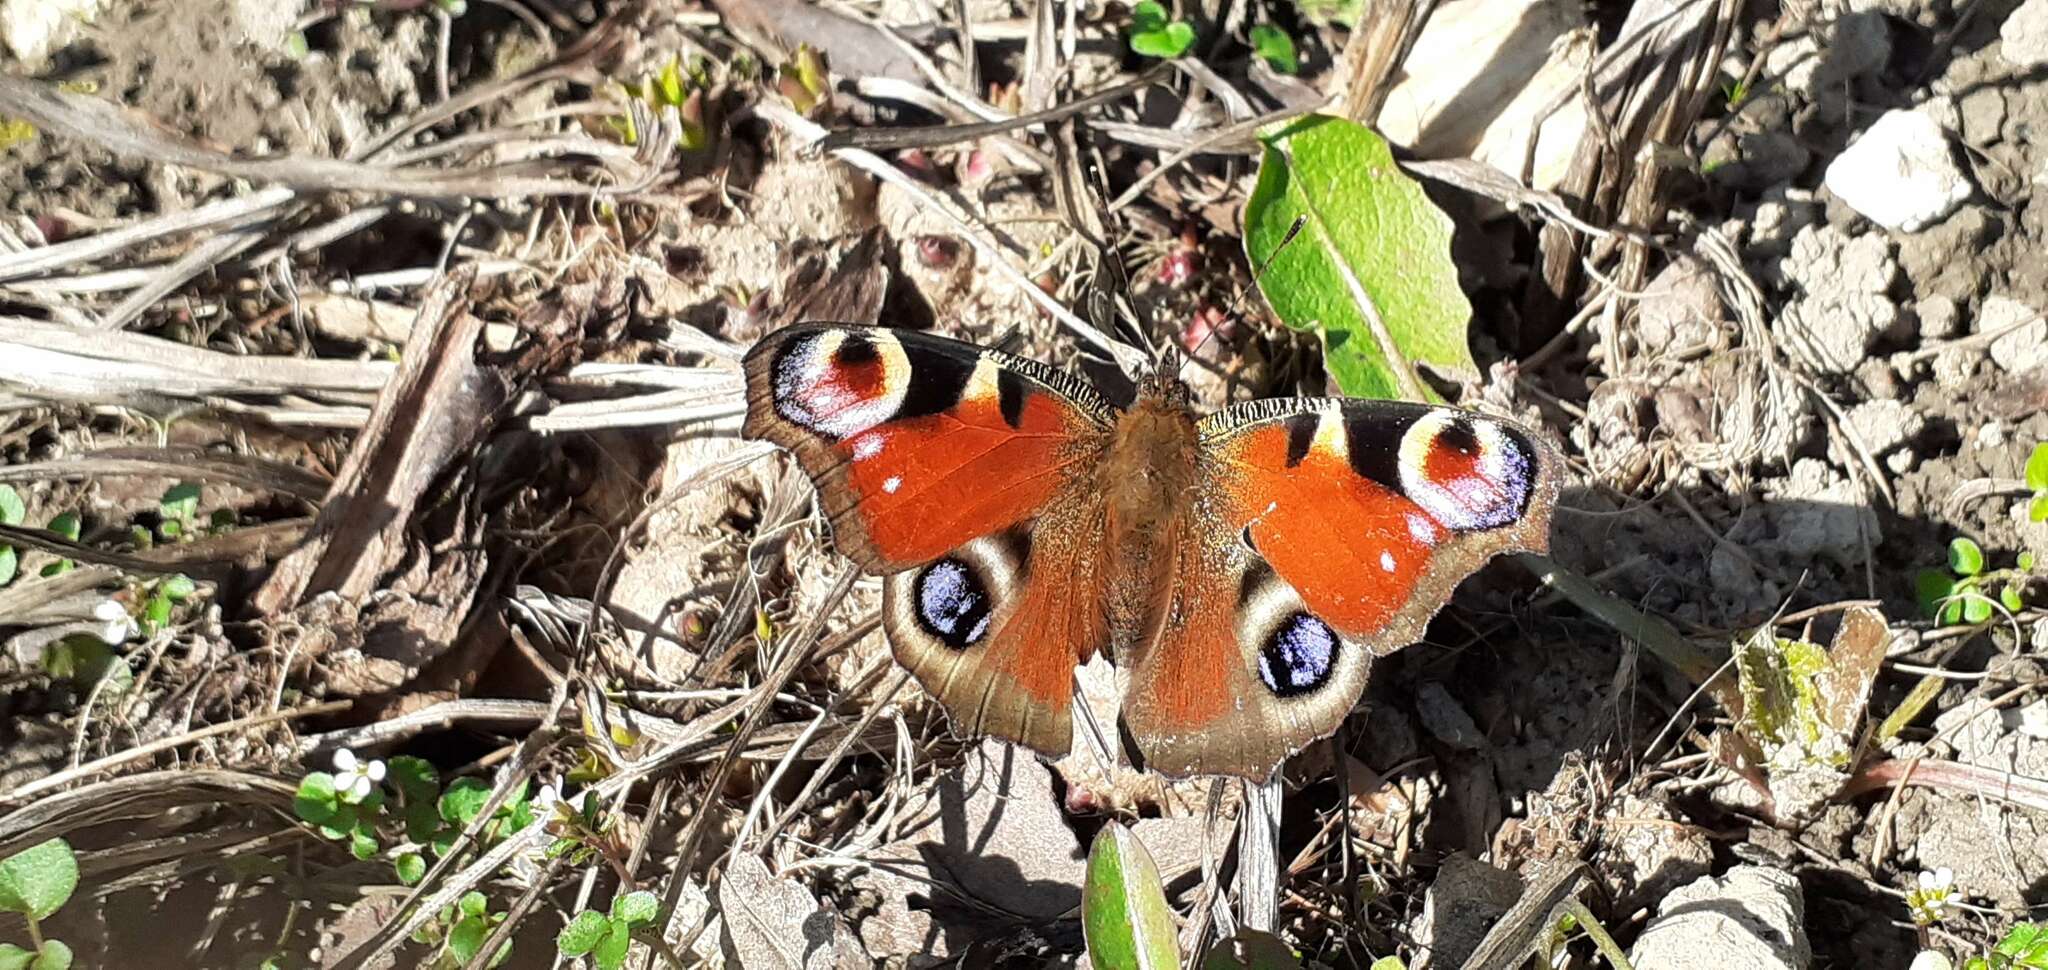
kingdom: Animalia
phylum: Arthropoda
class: Insecta
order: Lepidoptera
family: Nymphalidae
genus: Aglais
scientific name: Aglais io
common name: Peacock
